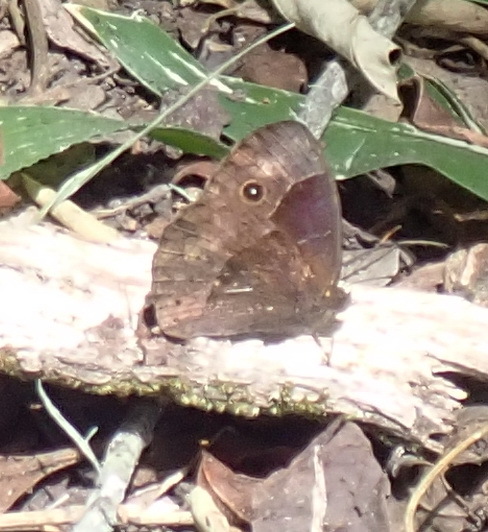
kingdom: Animalia
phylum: Arthropoda
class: Insecta
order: Lepidoptera
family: Nymphalidae
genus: Mycalesis
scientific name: Mycalesis rhacotis
